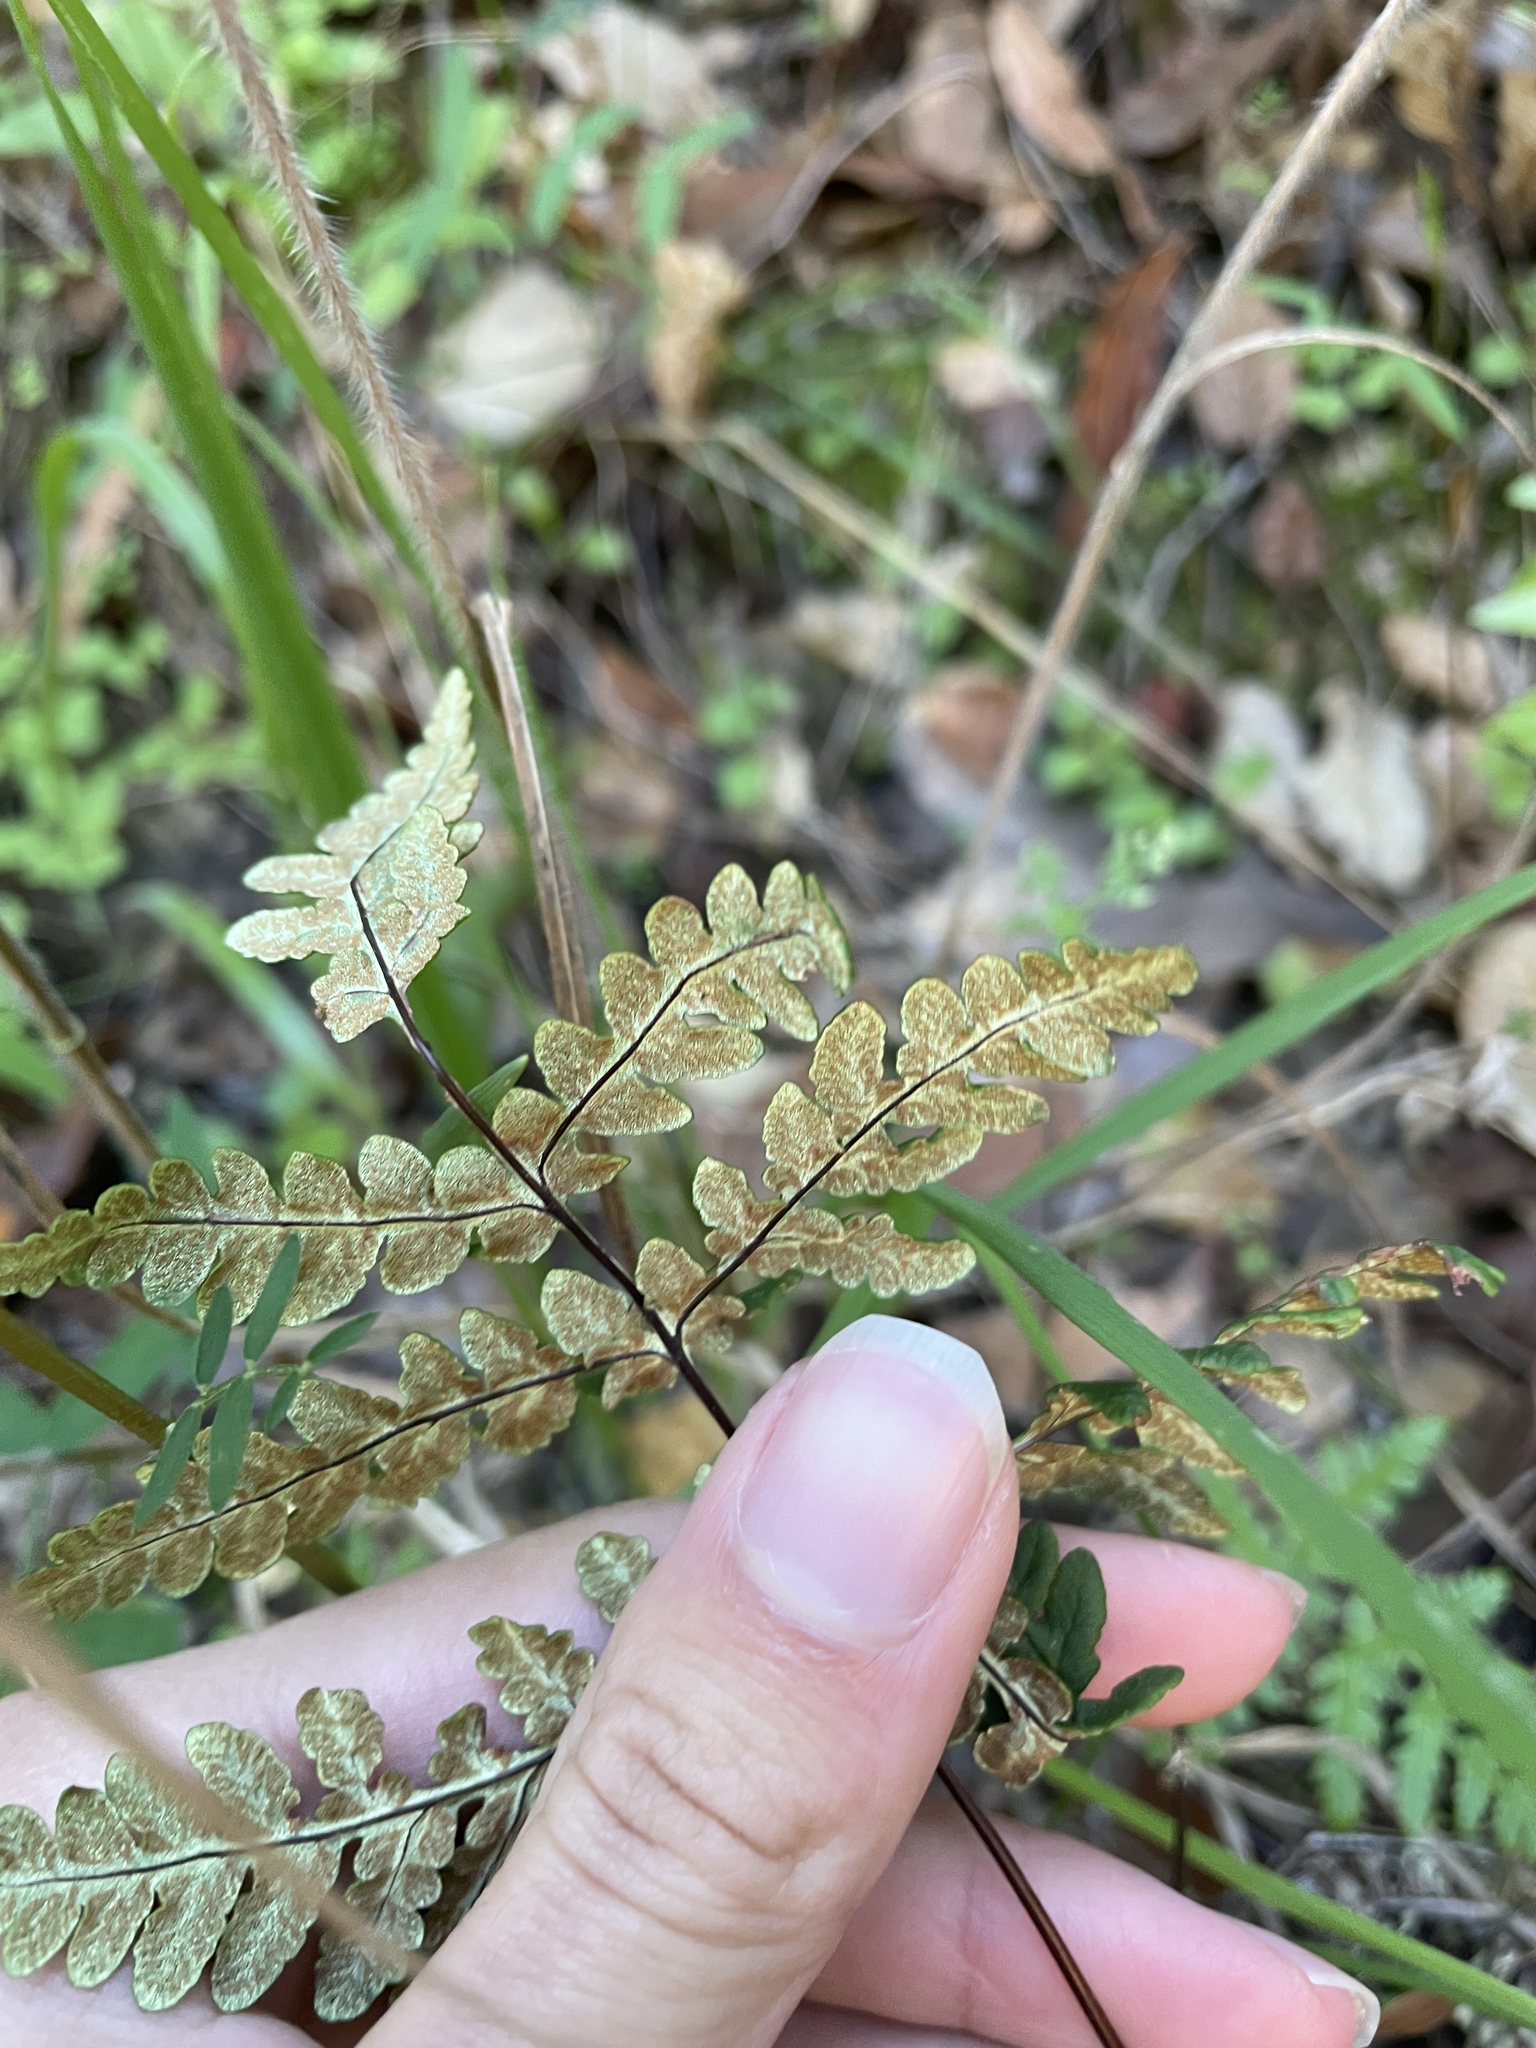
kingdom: Plantae
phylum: Tracheophyta
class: Polypodiopsida
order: Polypodiales
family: Pteridaceae
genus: Pentagramma
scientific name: Pentagramma triangularis
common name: Gold fern
